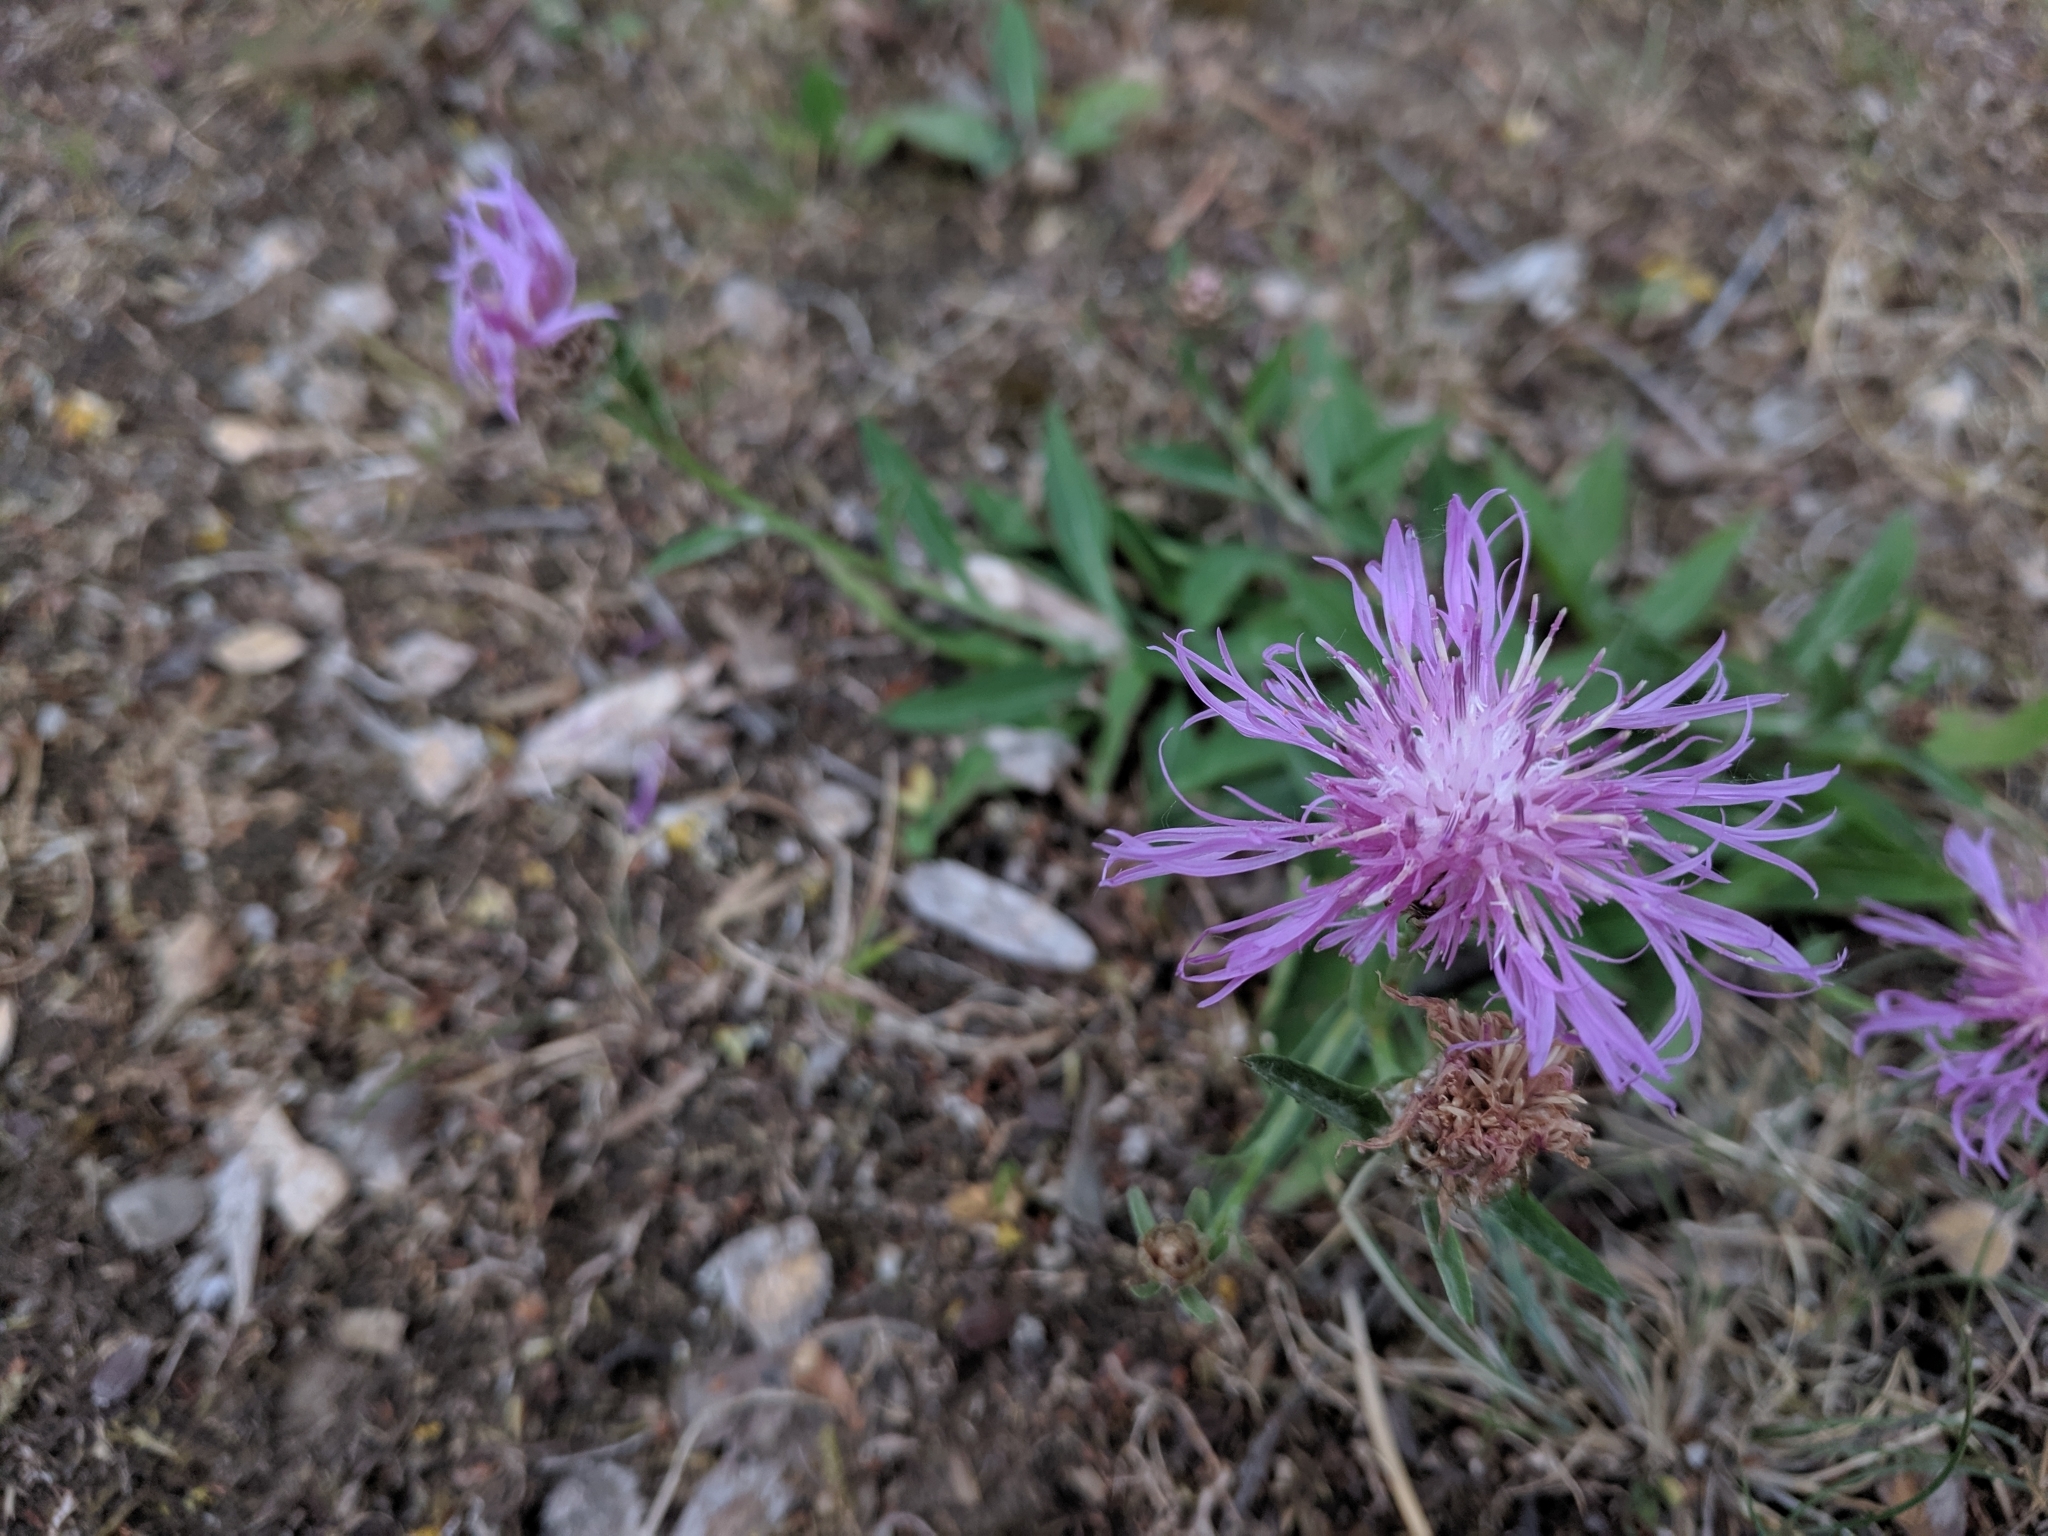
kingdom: Plantae
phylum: Tracheophyta
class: Magnoliopsida
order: Asterales
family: Asteraceae
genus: Centaurea
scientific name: Centaurea jacea
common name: Brown knapweed
